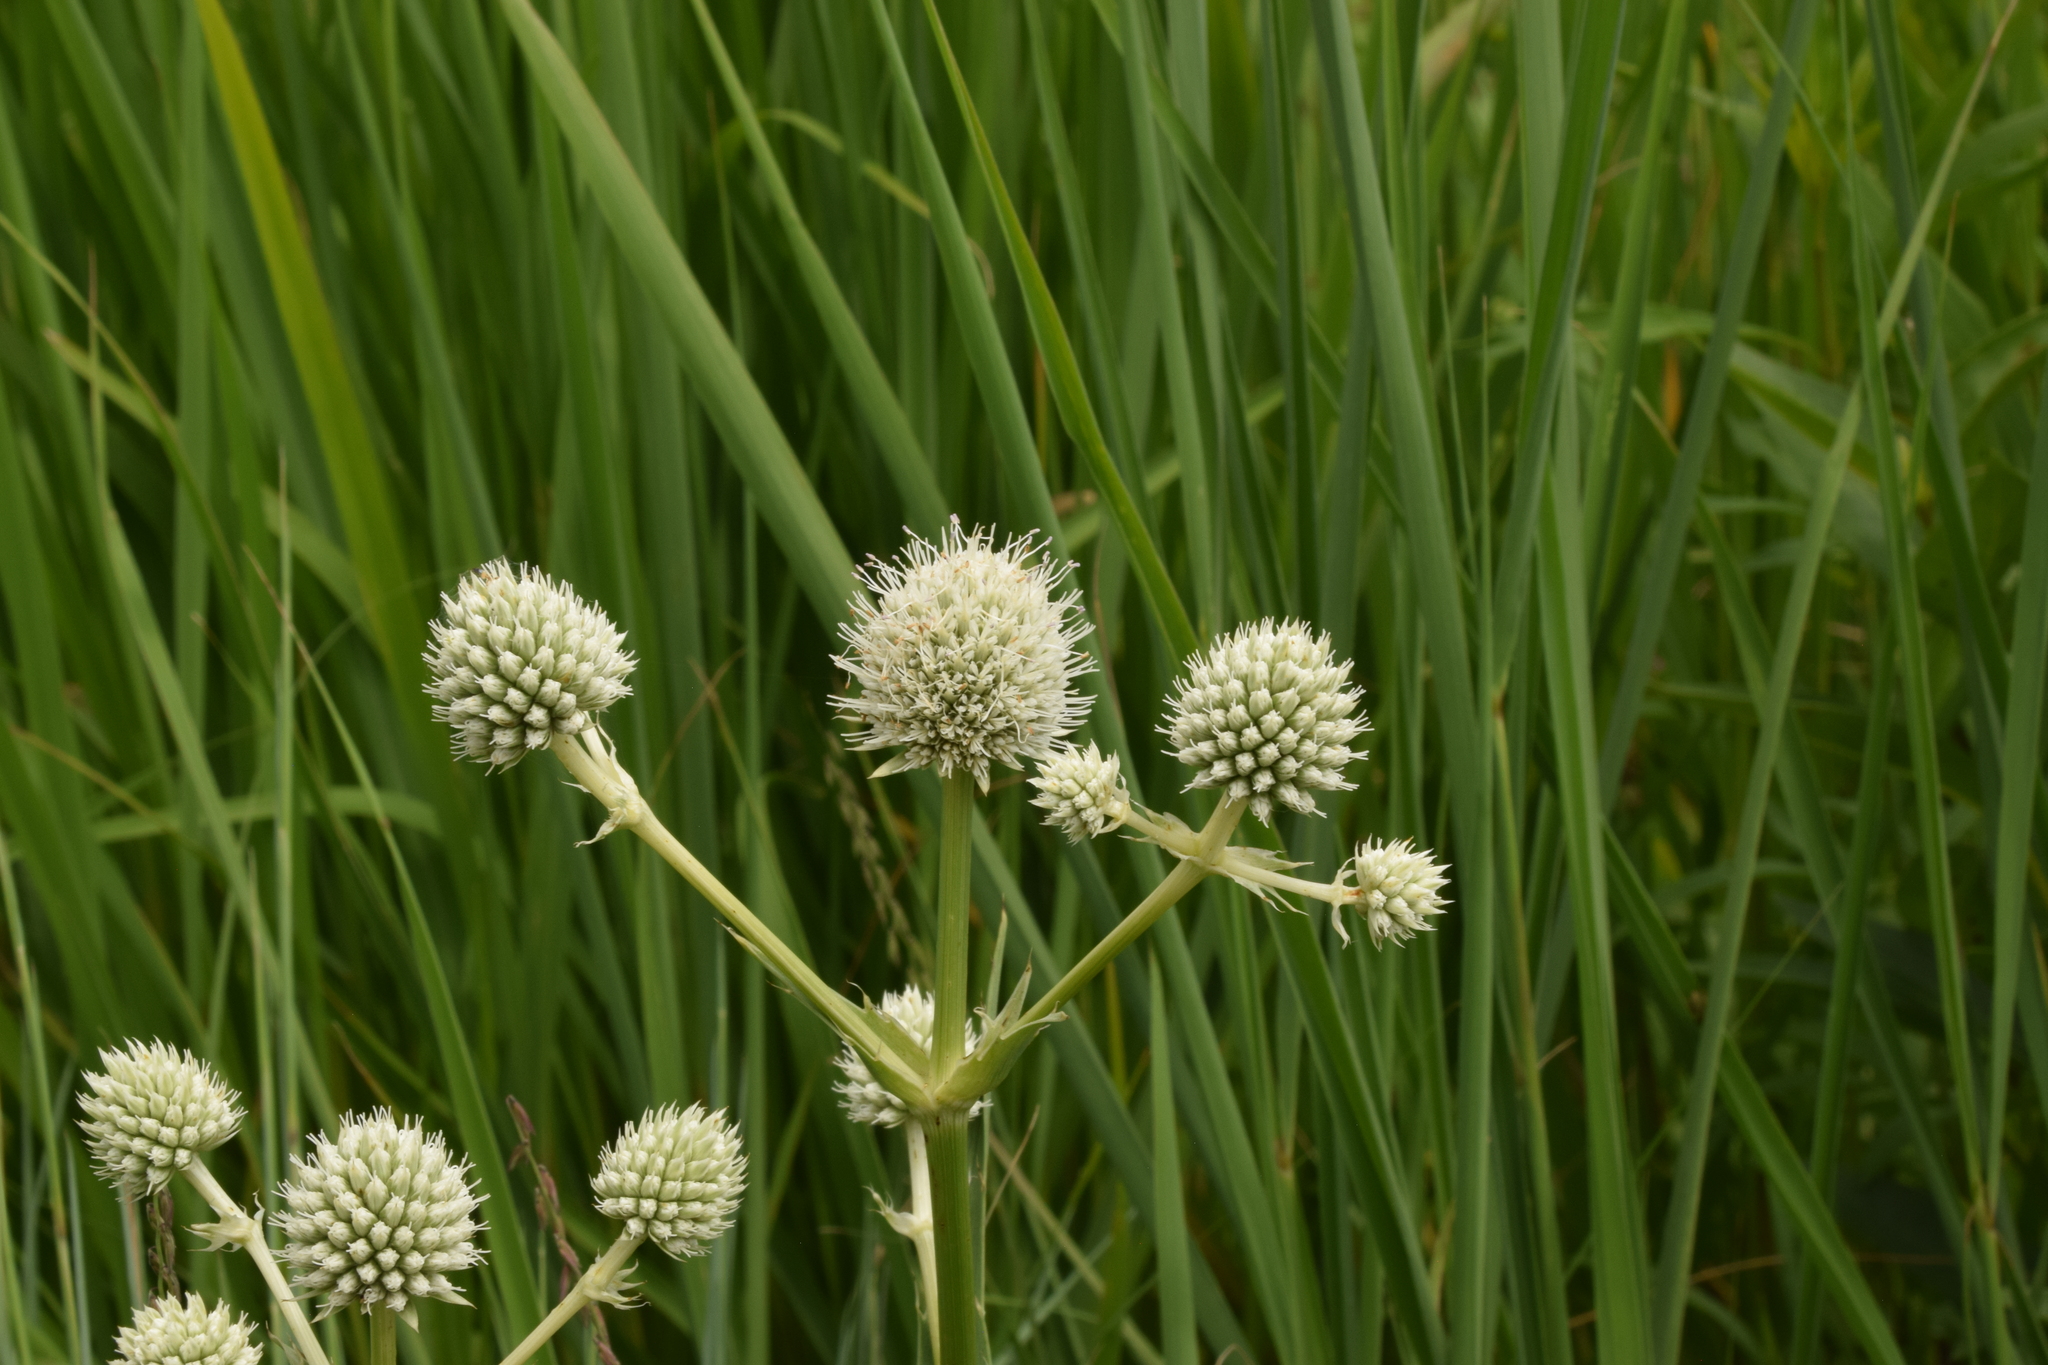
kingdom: Plantae
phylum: Tracheophyta
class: Magnoliopsida
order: Apiales
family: Apiaceae
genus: Eryngium
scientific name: Eryngium yuccifolium
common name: Button eryngo
